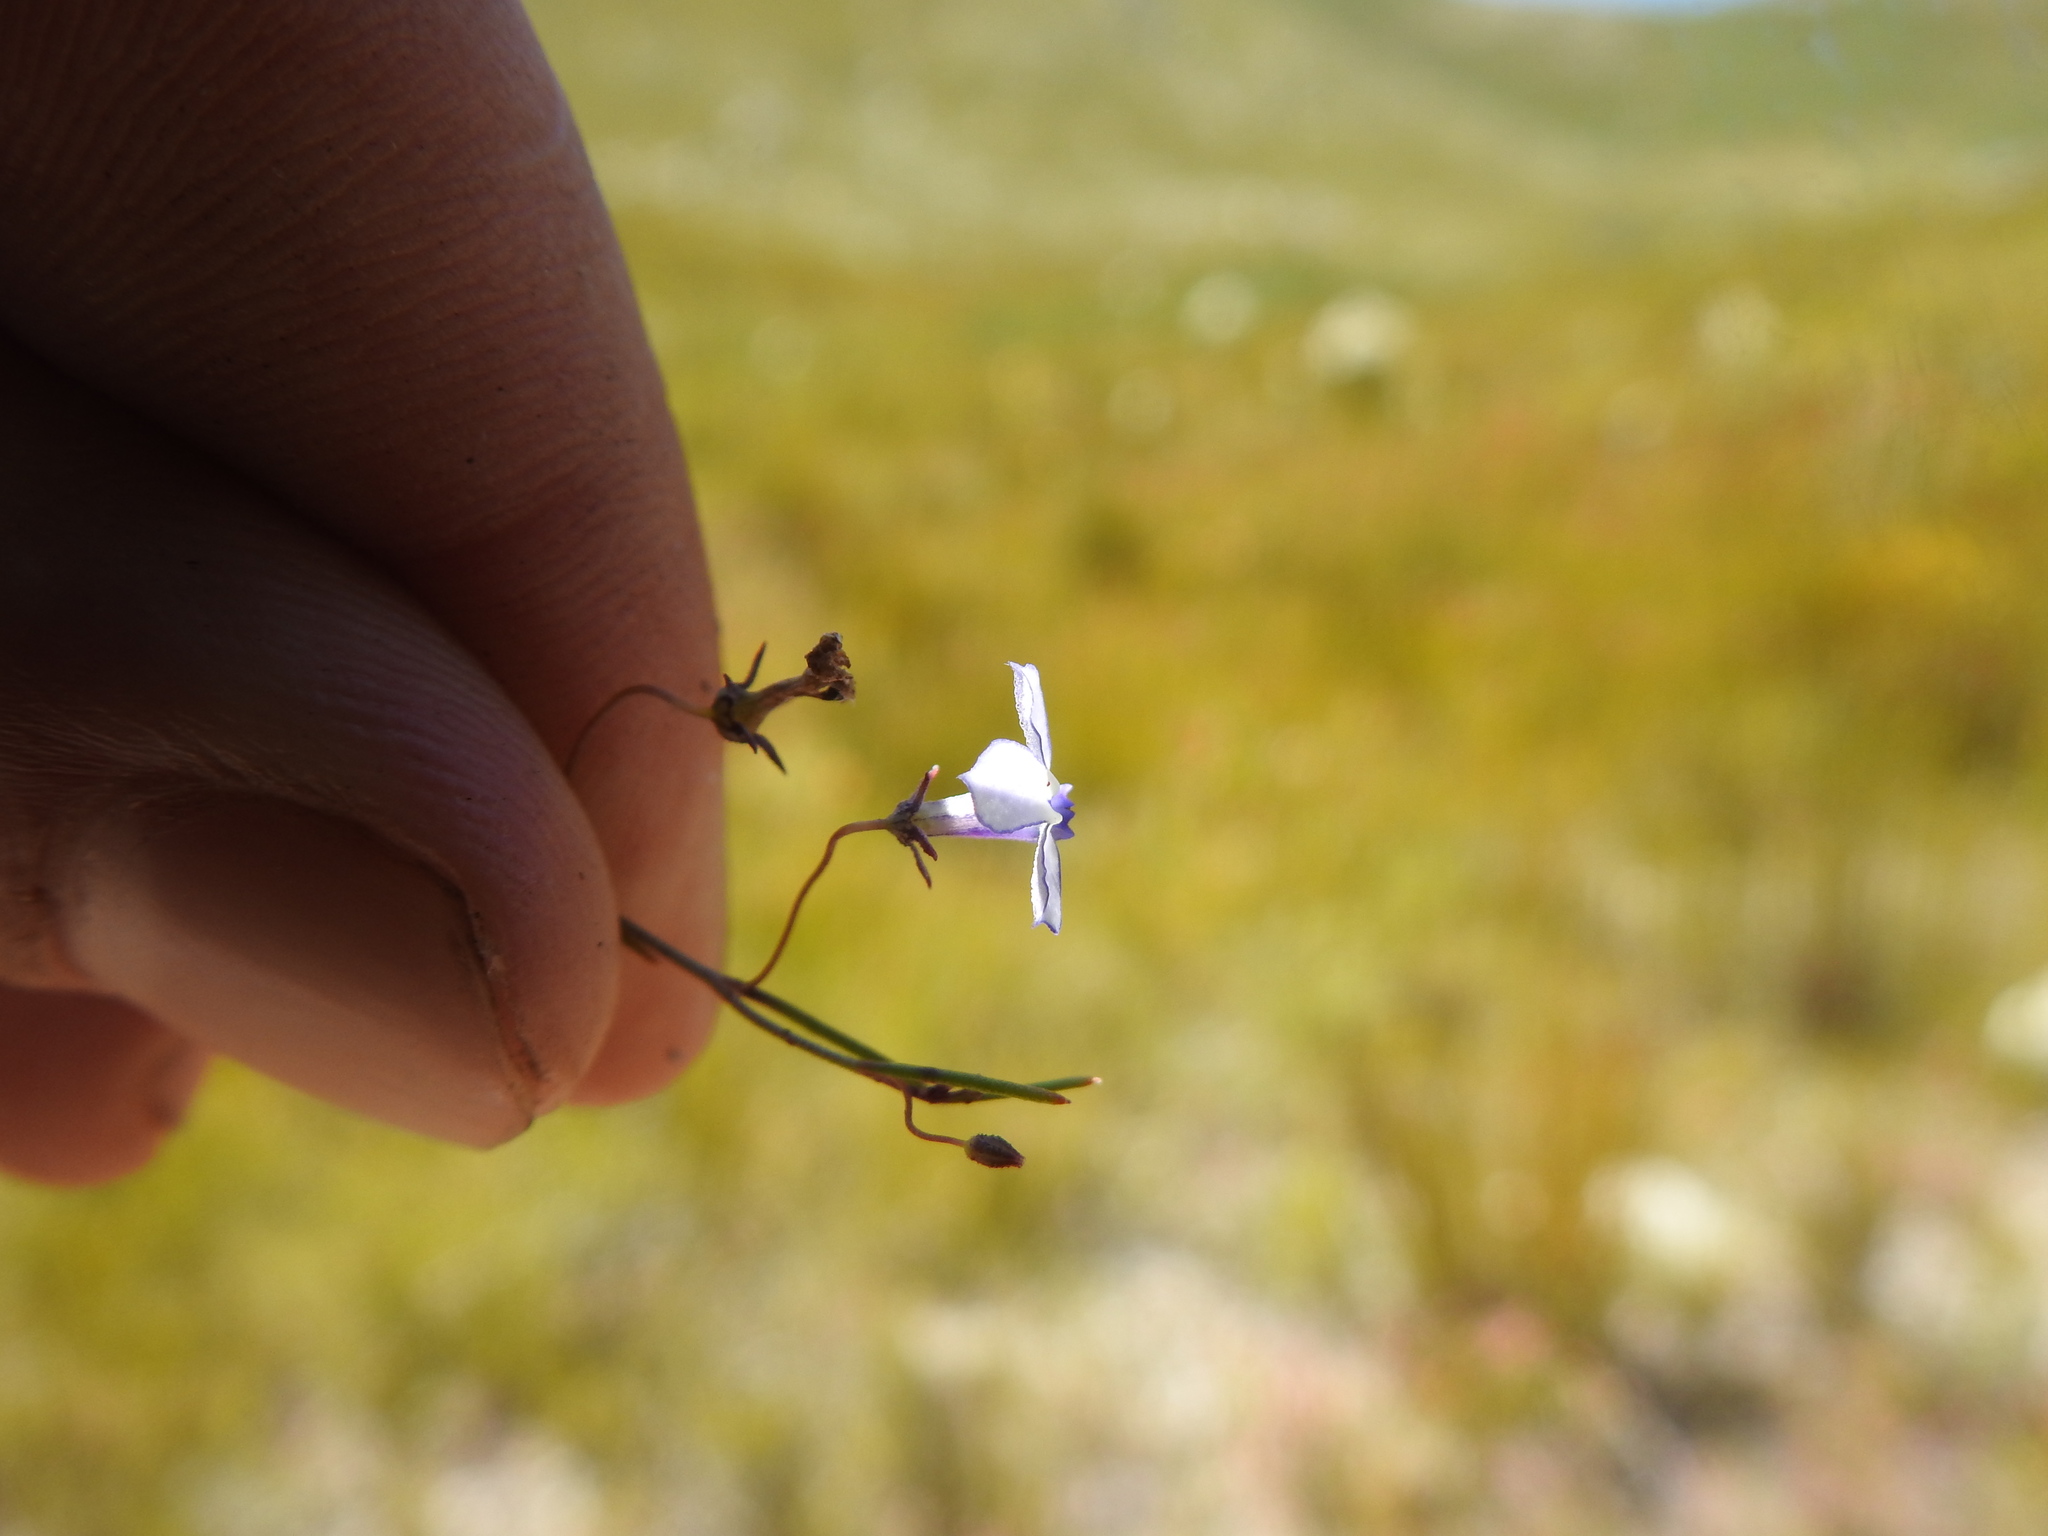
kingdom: Plantae
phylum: Tracheophyta
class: Magnoliopsida
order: Asterales
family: Campanulaceae
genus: Lobelia
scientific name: Lobelia setacea
